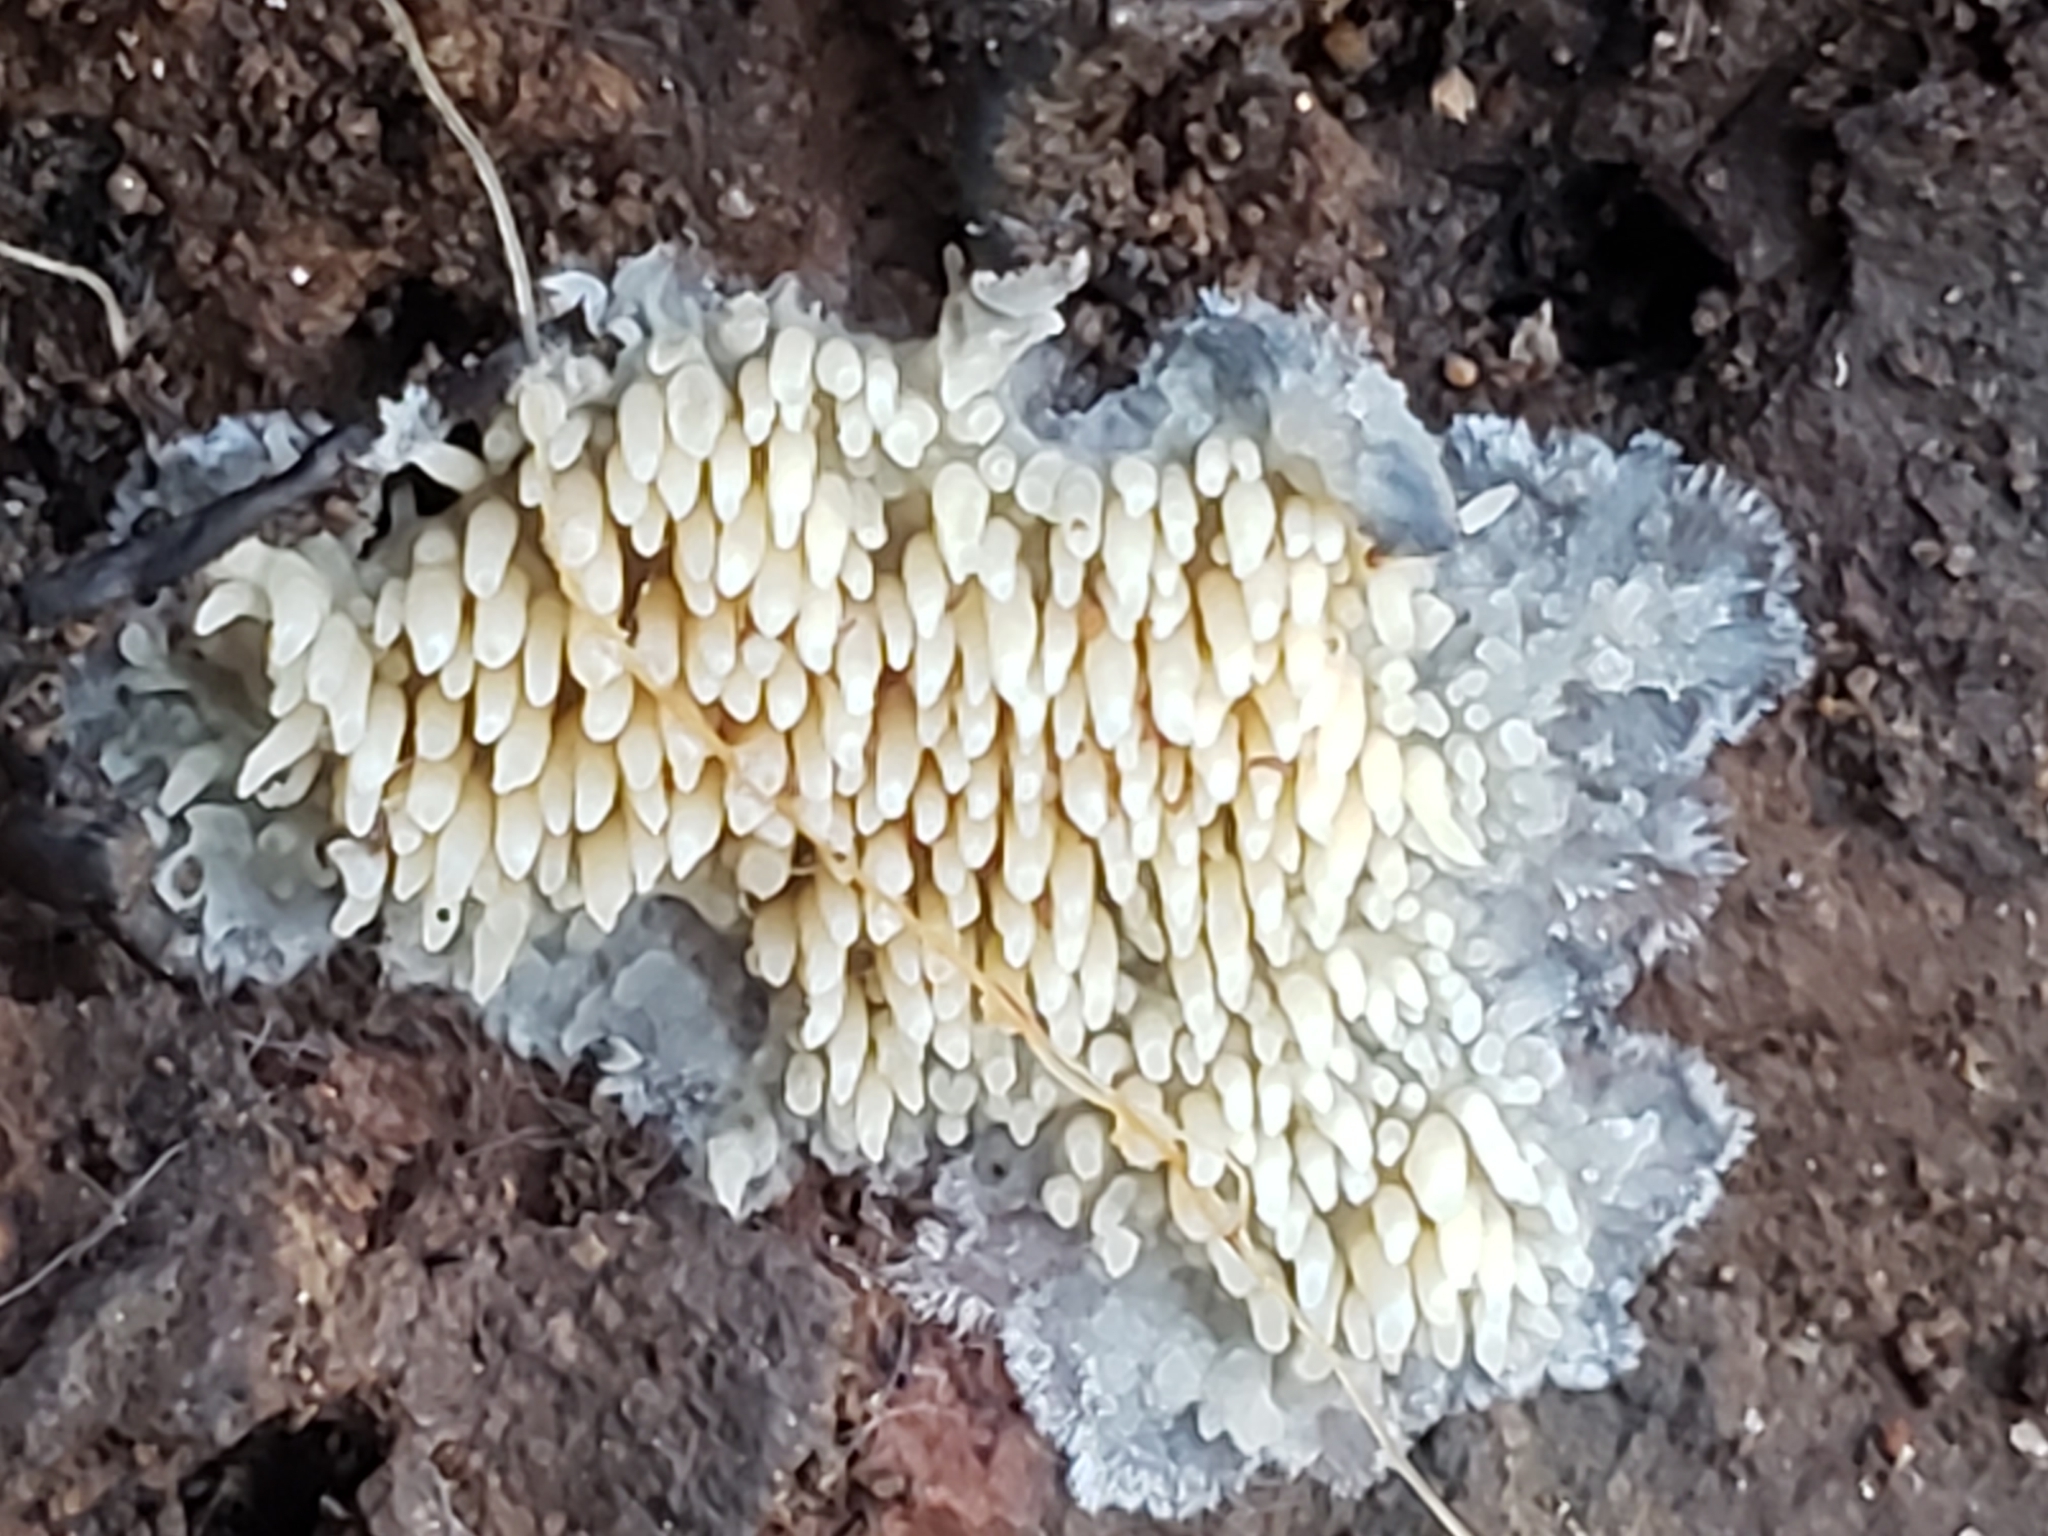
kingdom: Fungi
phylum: Basidiomycota
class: Agaricomycetes
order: Agaricales
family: Radulomycetaceae
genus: Radulomyces
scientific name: Radulomyces copelandii
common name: Asian beauty
